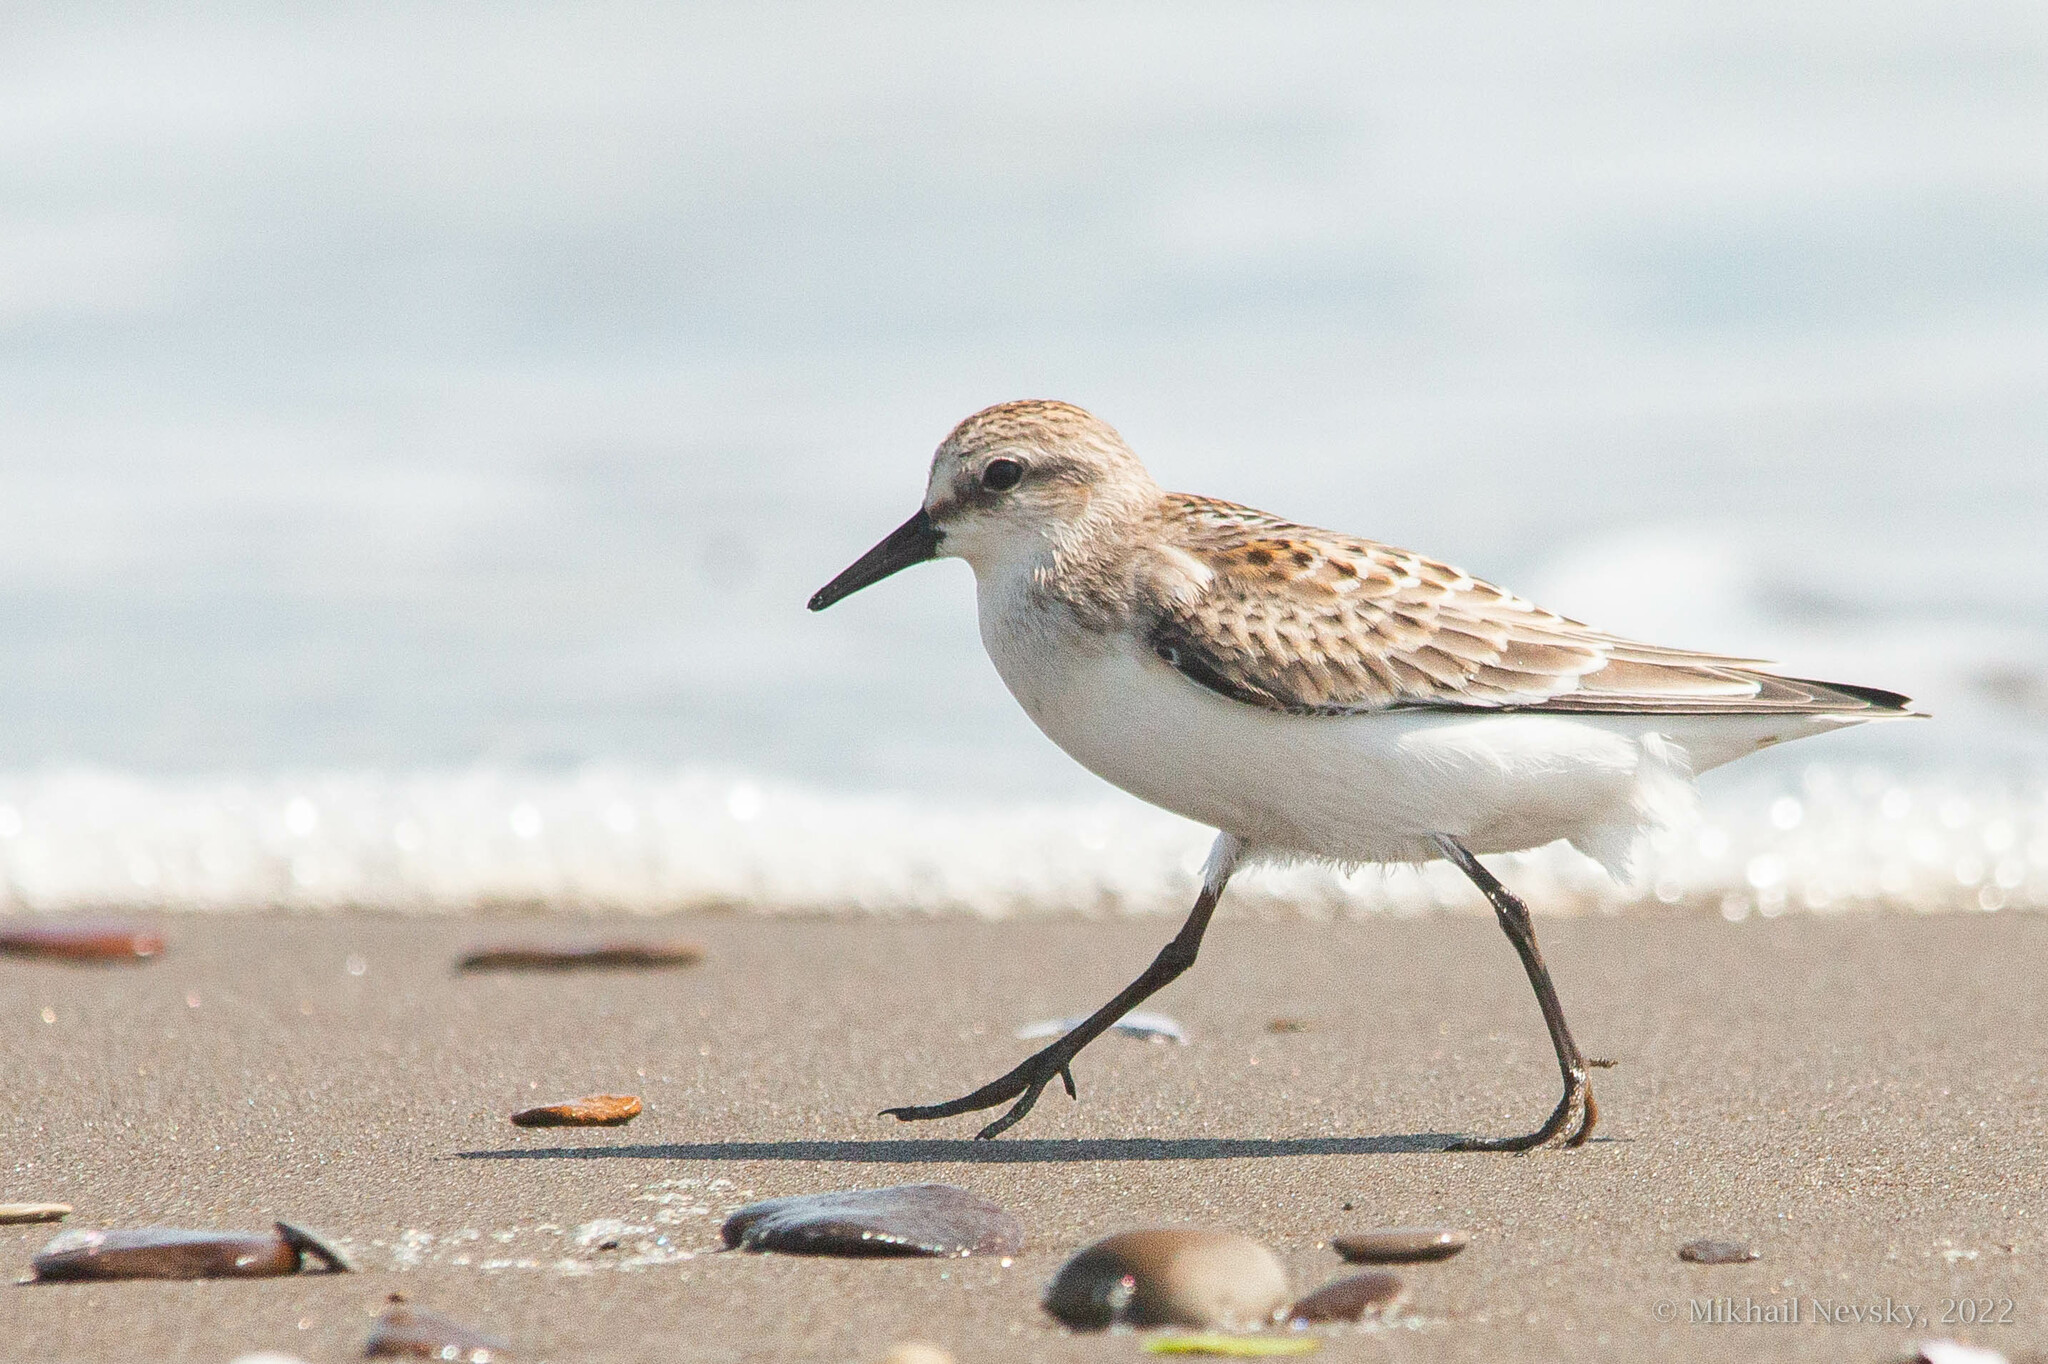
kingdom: Animalia
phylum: Chordata
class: Aves
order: Charadriiformes
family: Scolopacidae
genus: Calidris
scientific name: Calidris ruficollis
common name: Red-necked stint
